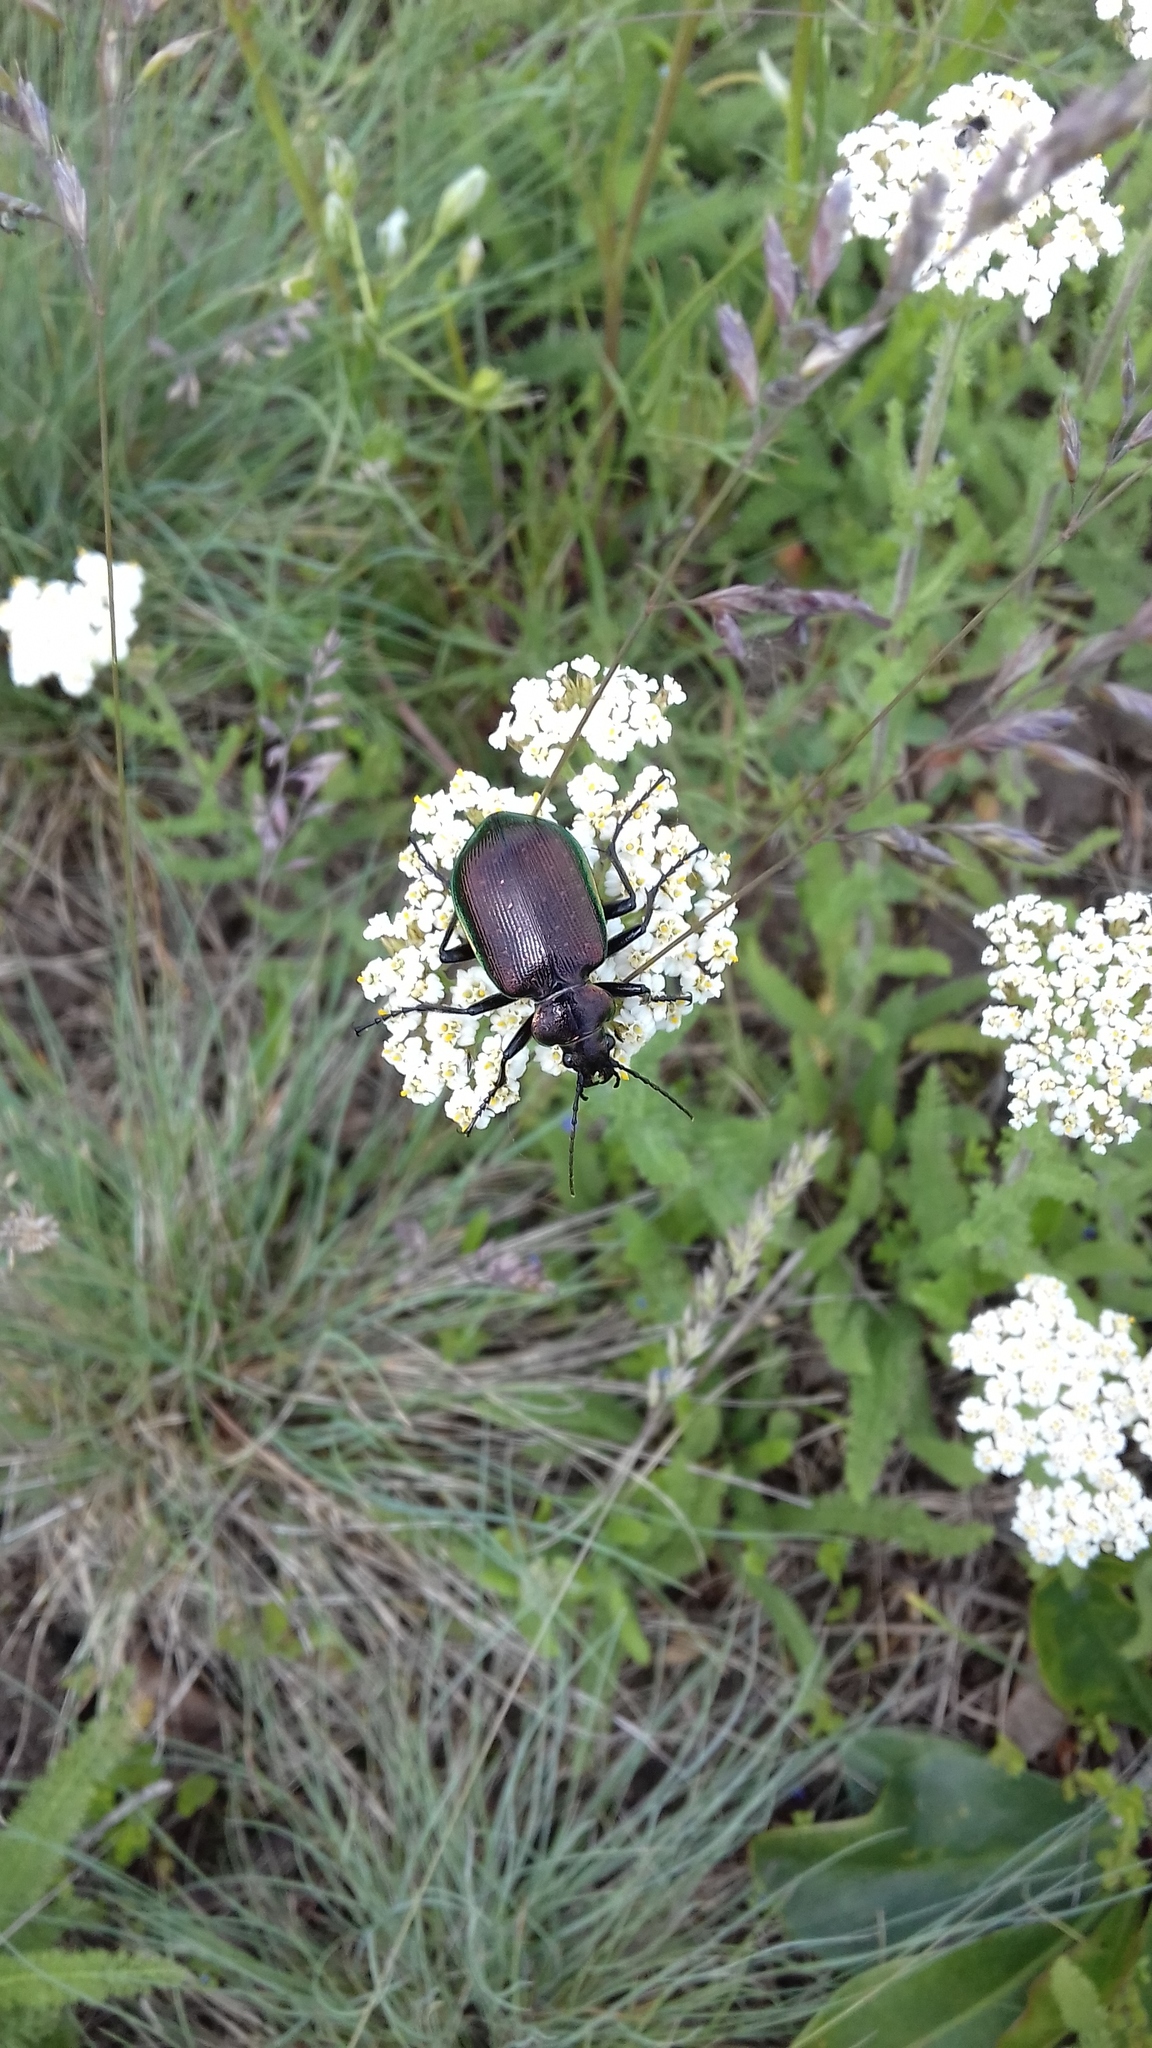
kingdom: Animalia
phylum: Arthropoda
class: Insecta
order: Coleoptera
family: Carabidae
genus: Calosoma
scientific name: Calosoma inquisitor
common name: Caterpillar-hunter
